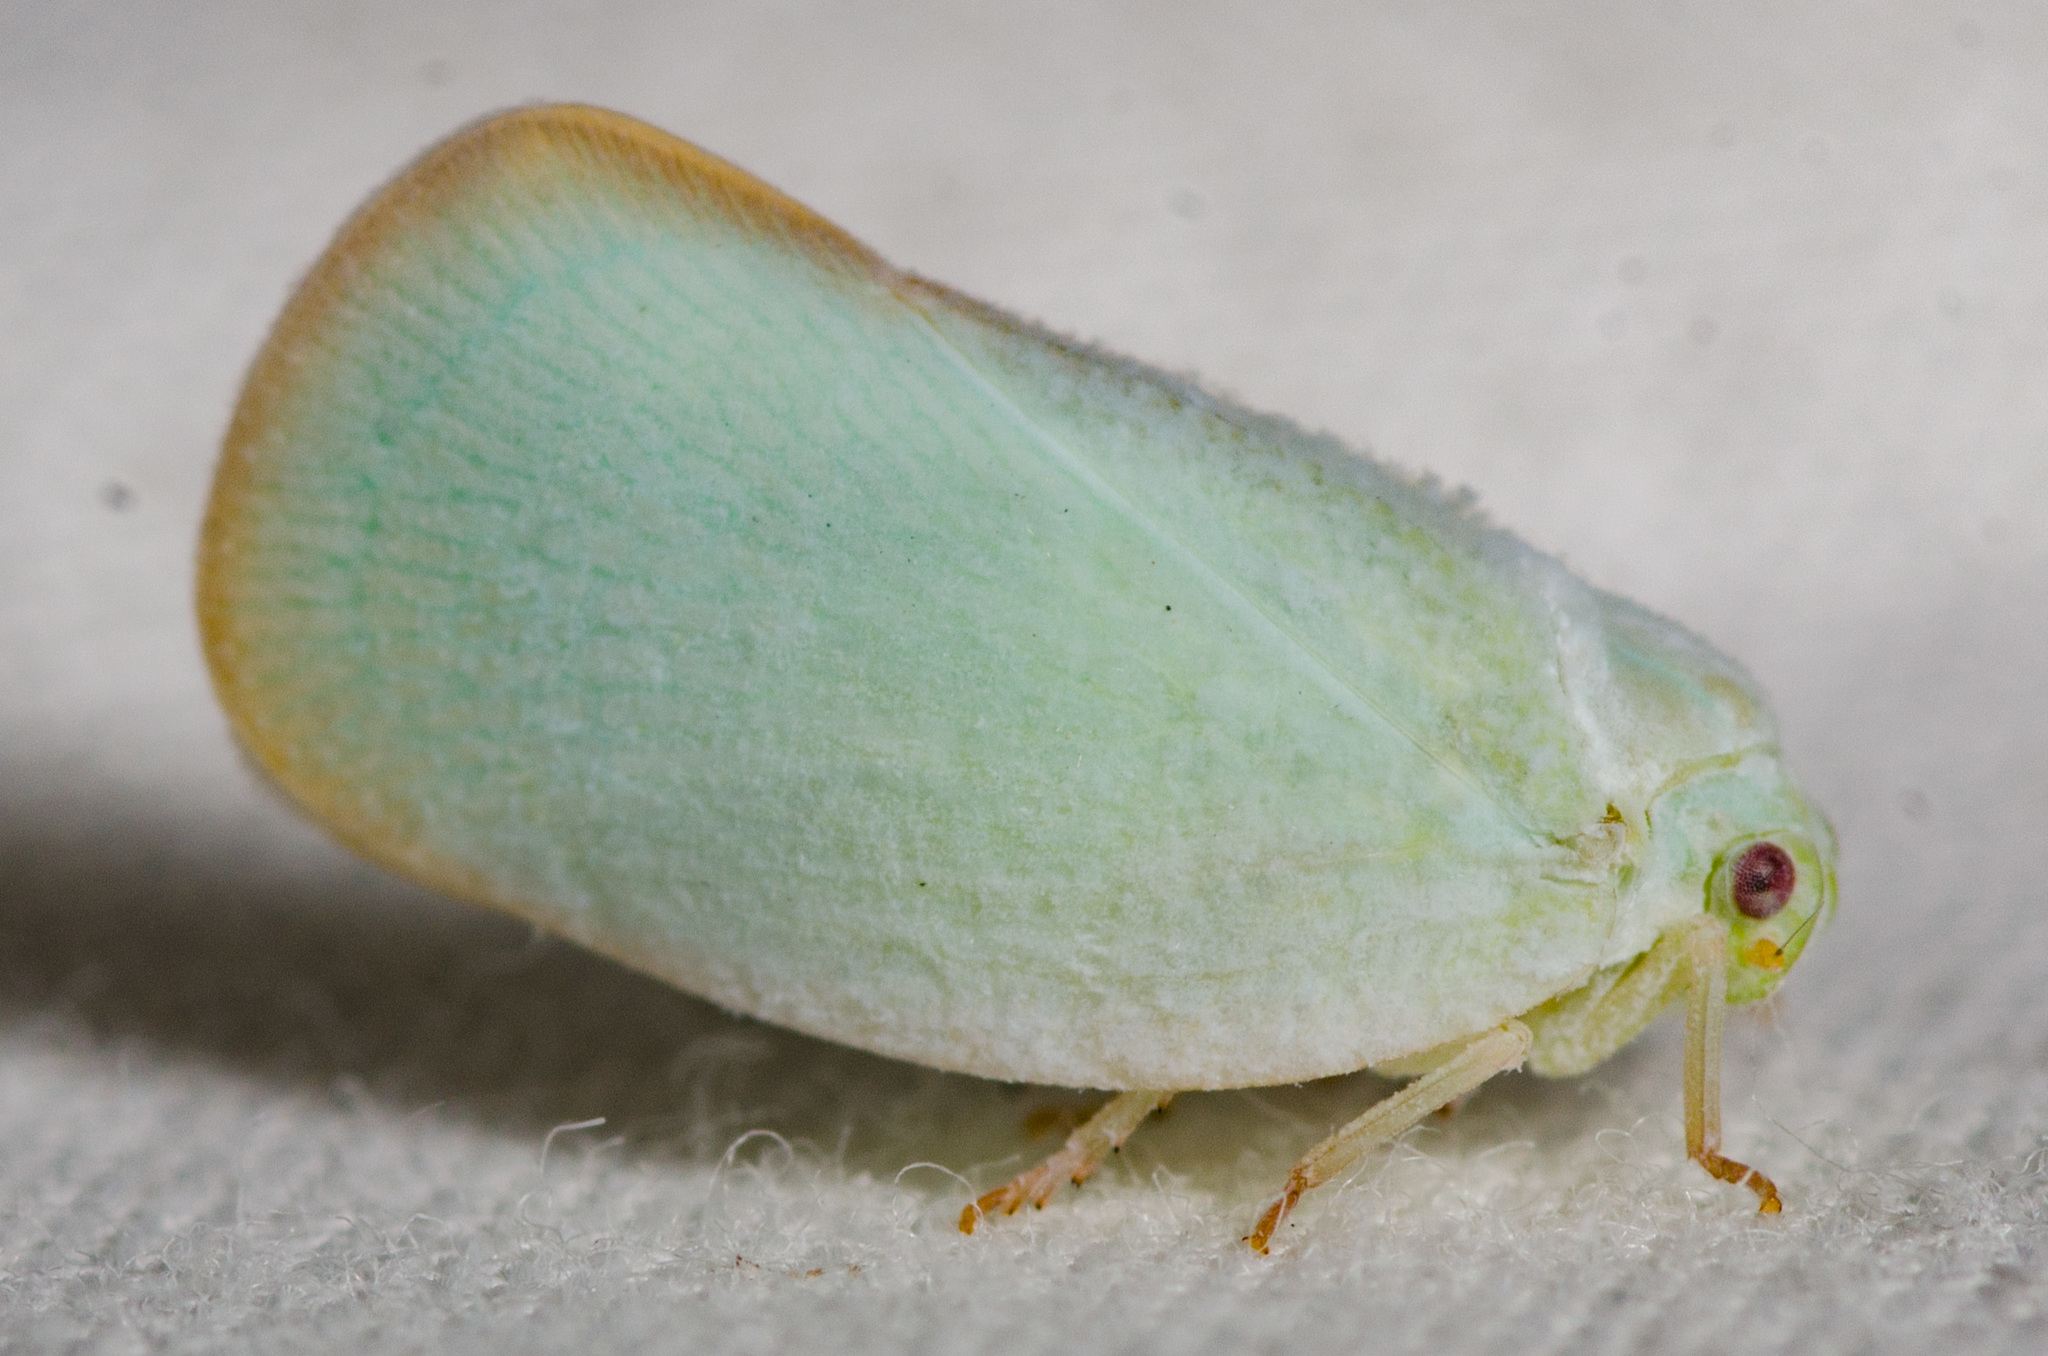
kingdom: Animalia
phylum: Arthropoda
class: Insecta
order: Hemiptera
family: Flatidae
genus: Ormenoides
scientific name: Ormenoides venusta
